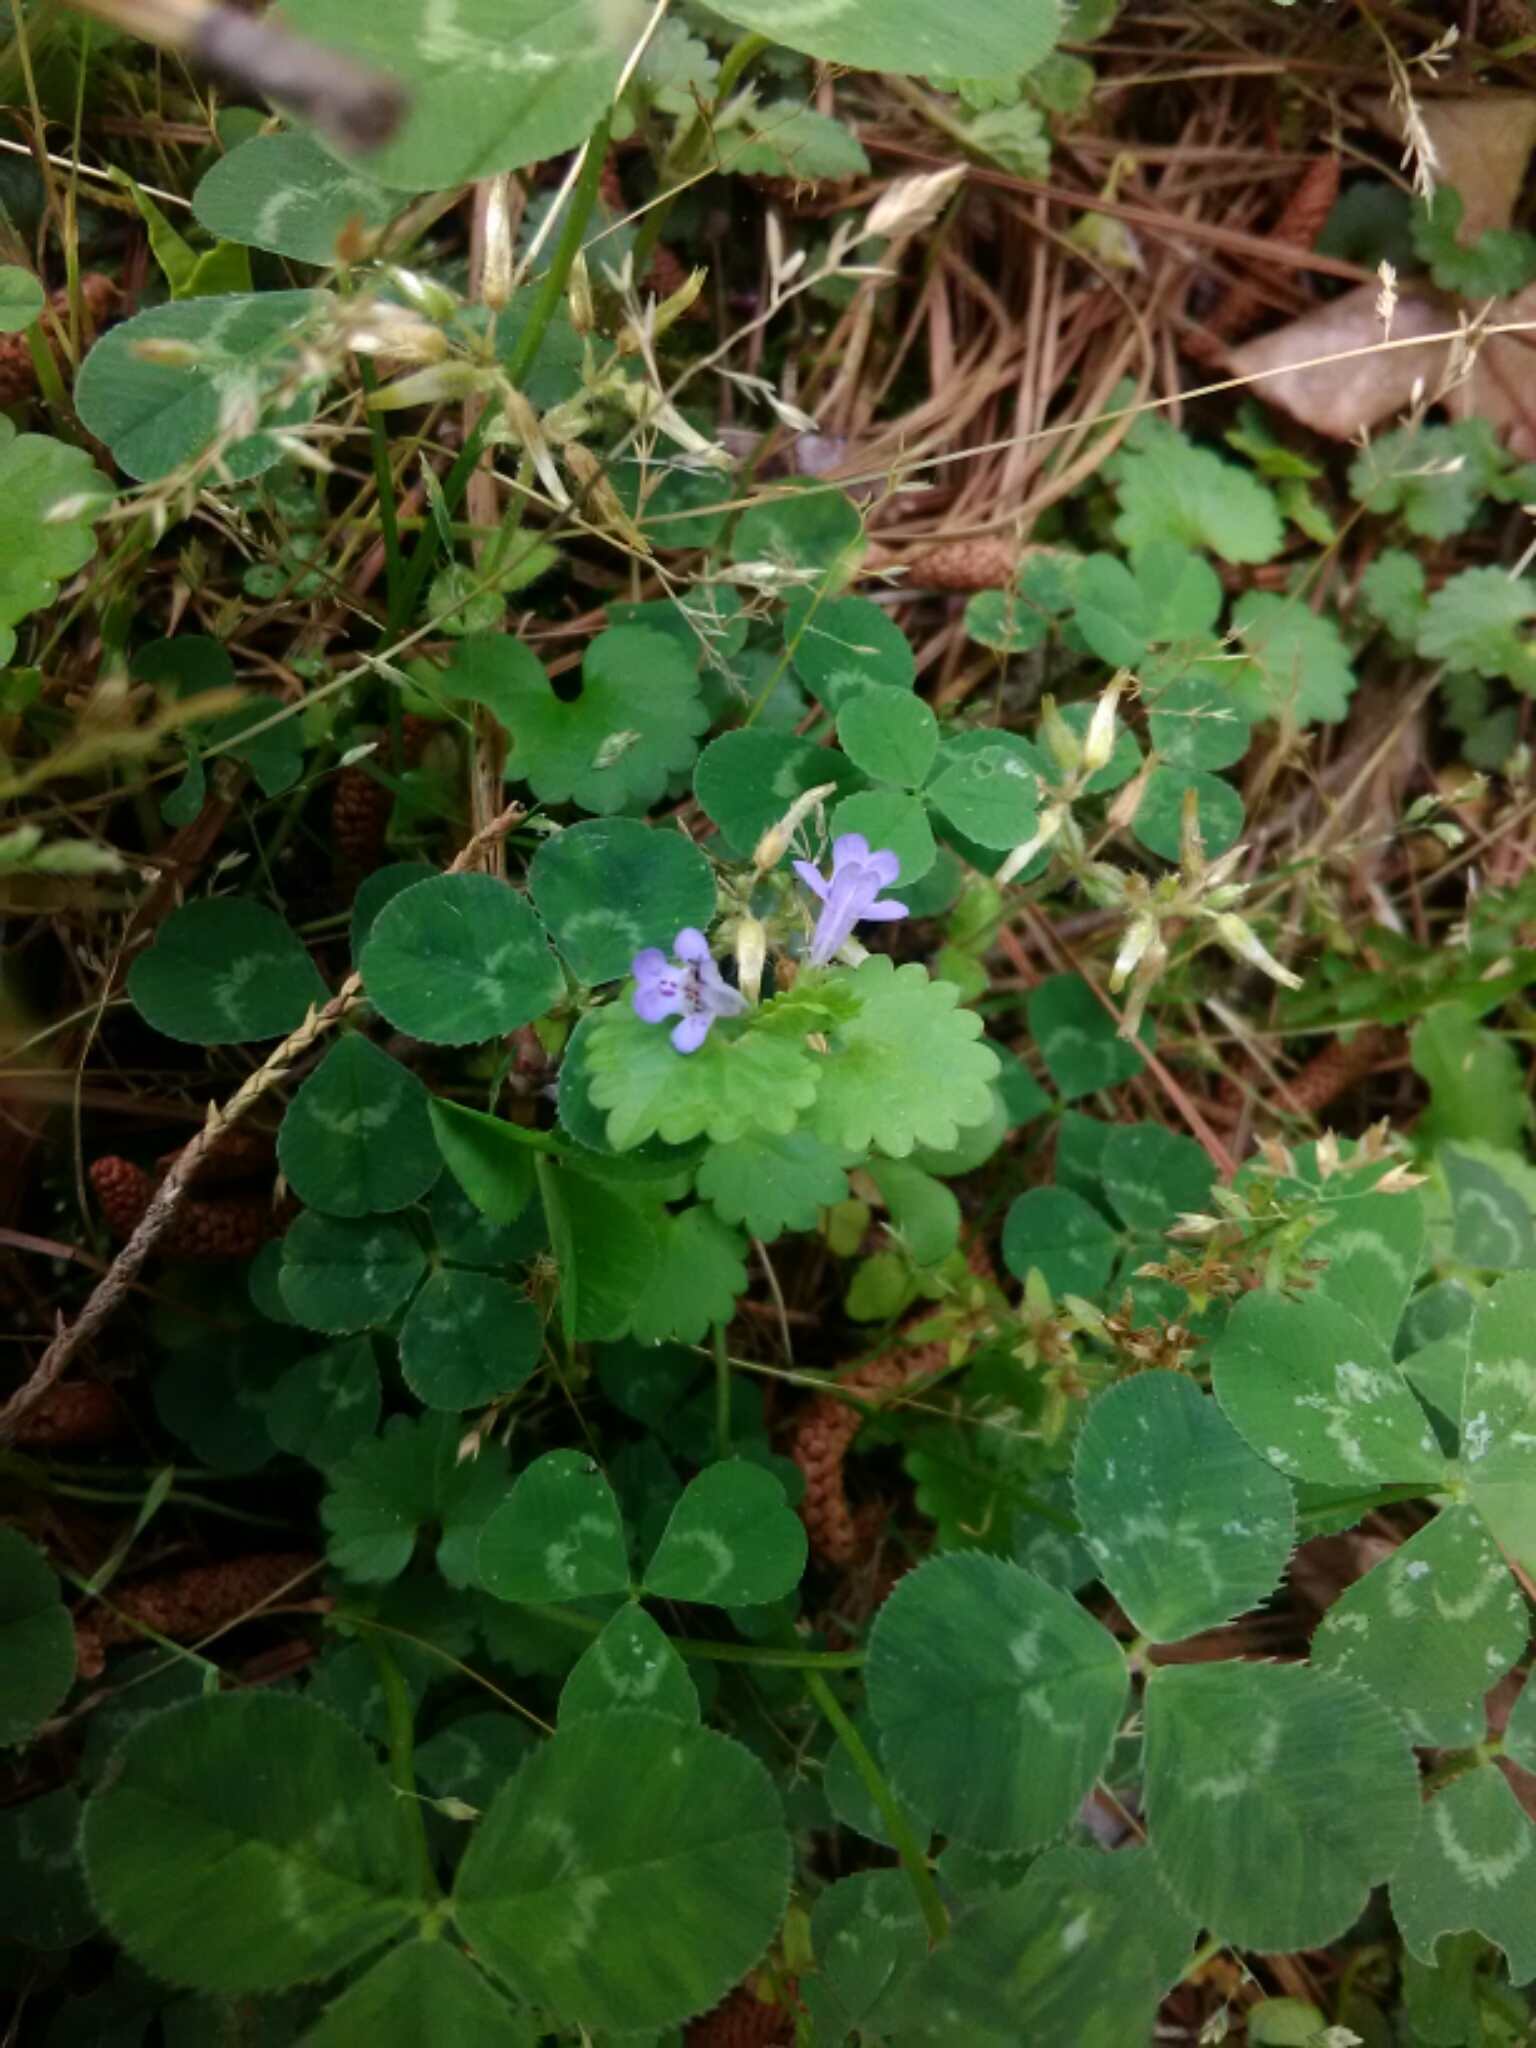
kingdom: Plantae
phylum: Tracheophyta
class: Magnoliopsida
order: Lamiales
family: Lamiaceae
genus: Glechoma
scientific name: Glechoma hederacea
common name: Ground ivy
